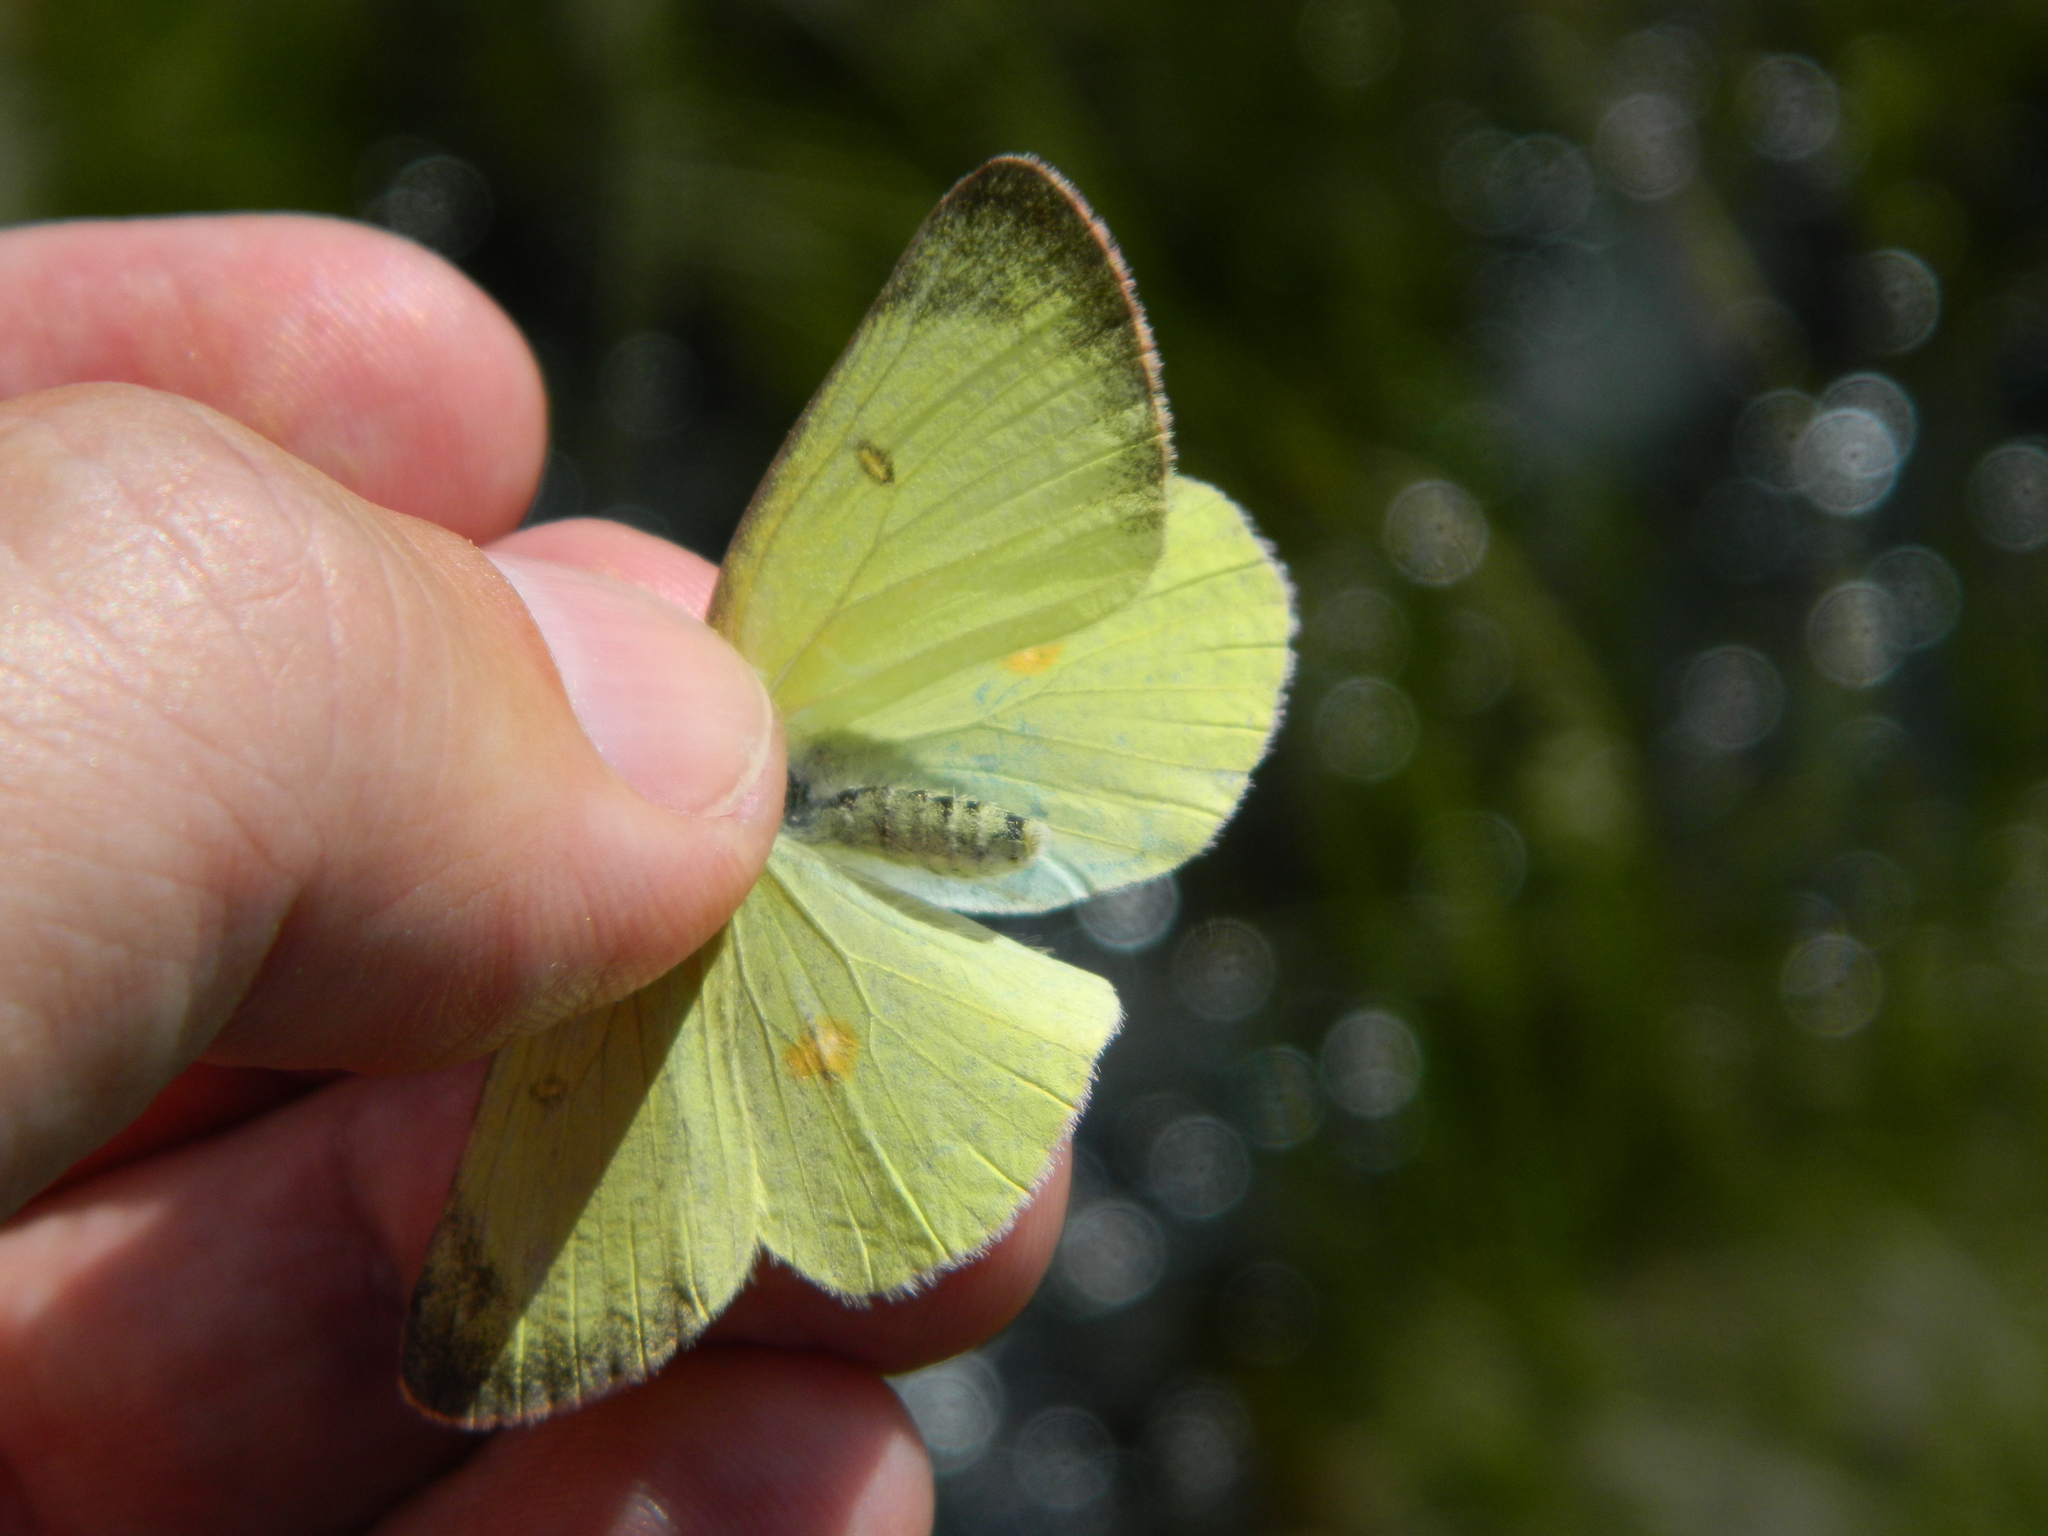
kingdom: Animalia
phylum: Arthropoda
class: Insecta
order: Lepidoptera
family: Pieridae
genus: Colias
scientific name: Colias interior
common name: Pink-edged sulphur
